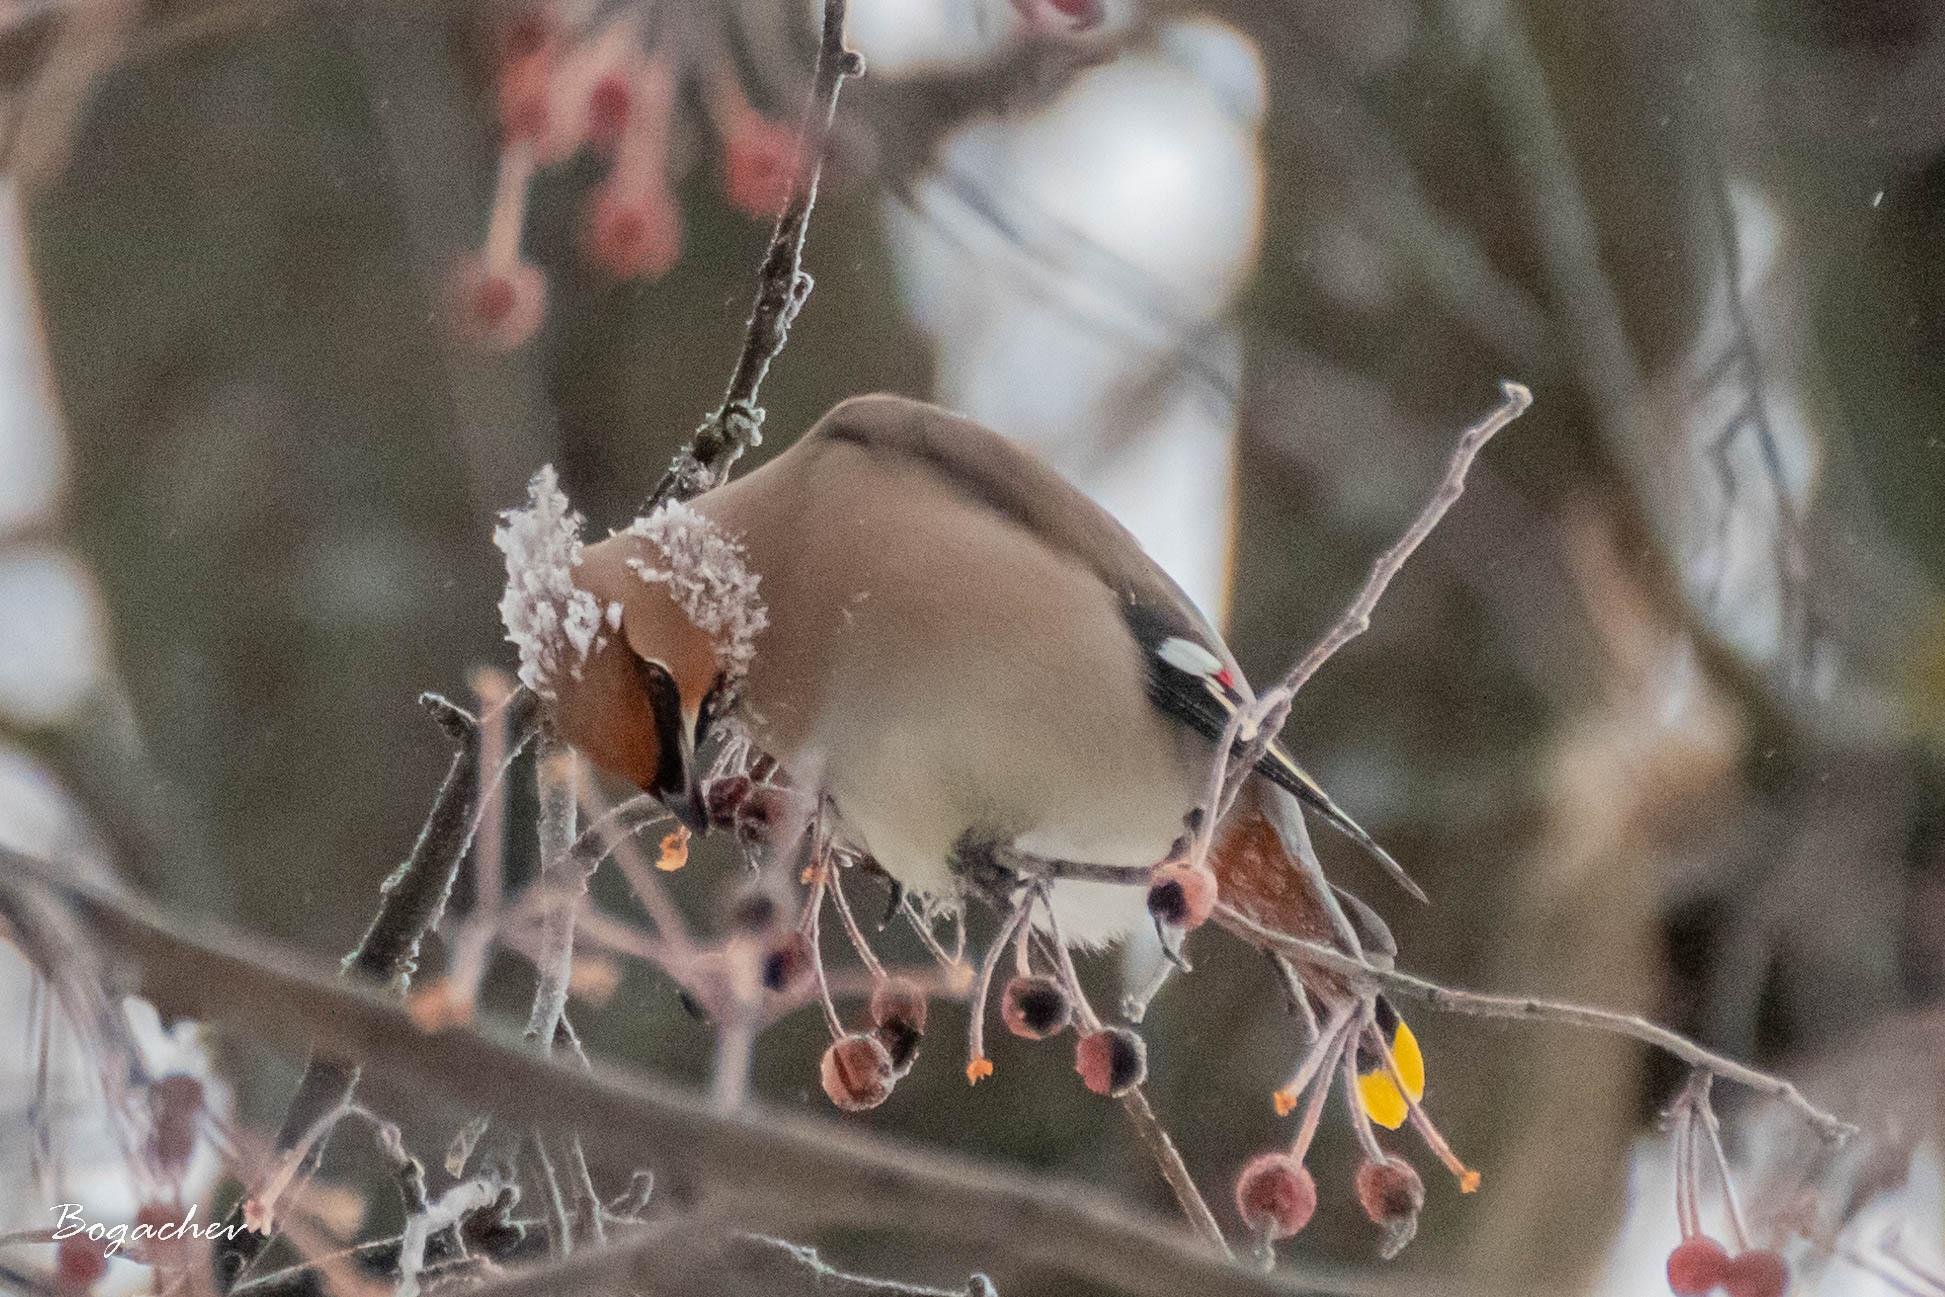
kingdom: Animalia
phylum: Chordata
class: Aves
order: Passeriformes
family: Bombycillidae
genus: Bombycilla
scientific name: Bombycilla garrulus
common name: Bohemian waxwing
